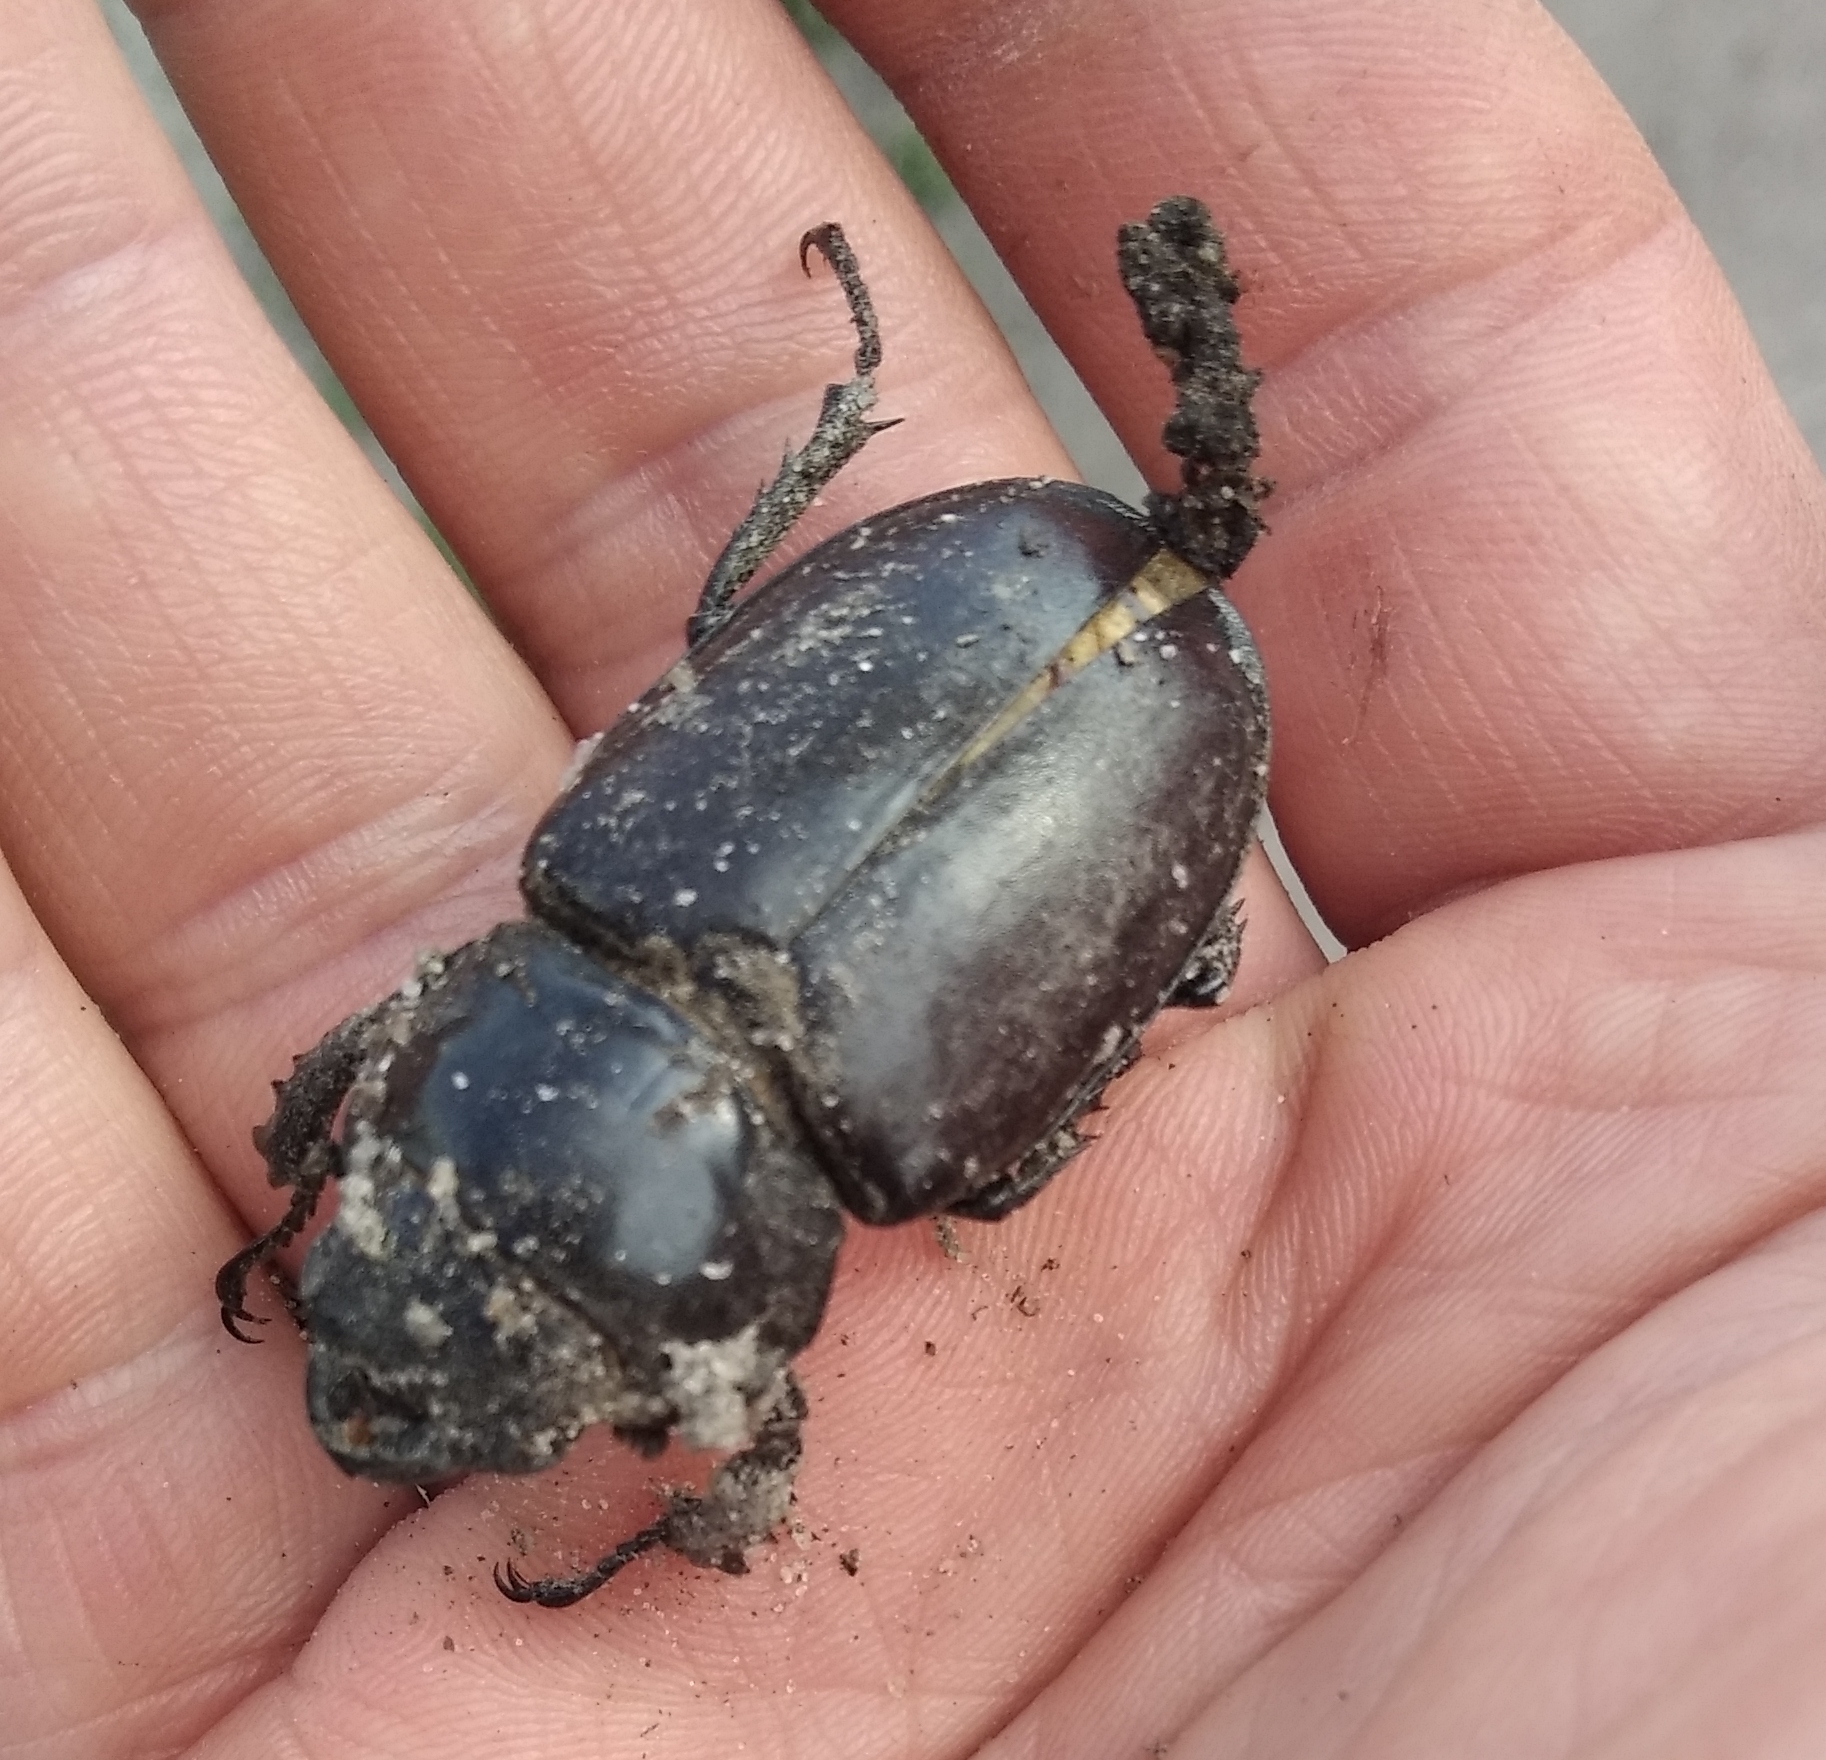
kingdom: Animalia
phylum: Arthropoda
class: Insecta
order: Coleoptera
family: Lucanidae
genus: Lucanus
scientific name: Lucanus cervus
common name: Stag beetle
